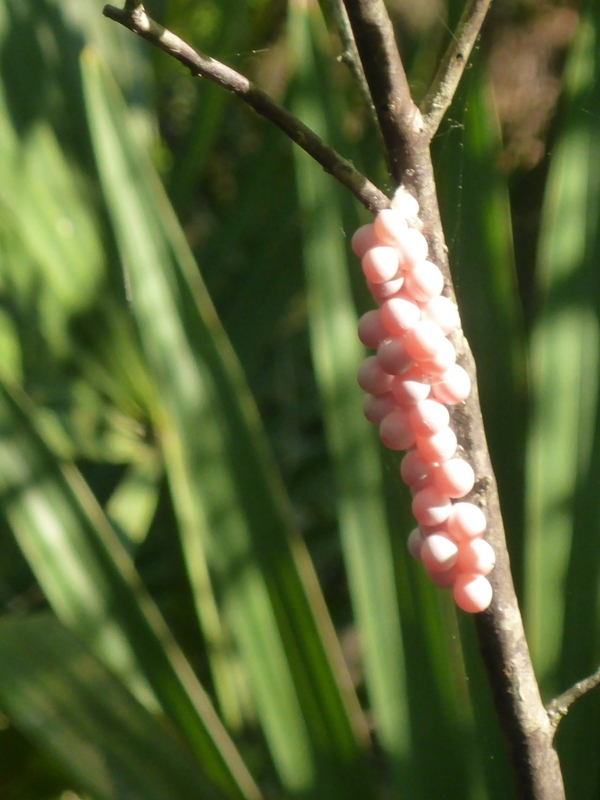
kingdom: Animalia
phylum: Mollusca
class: Gastropoda
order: Architaenioglossa
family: Ampullariidae
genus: Pomacea
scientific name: Pomacea paludosa
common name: Florida applesnail
